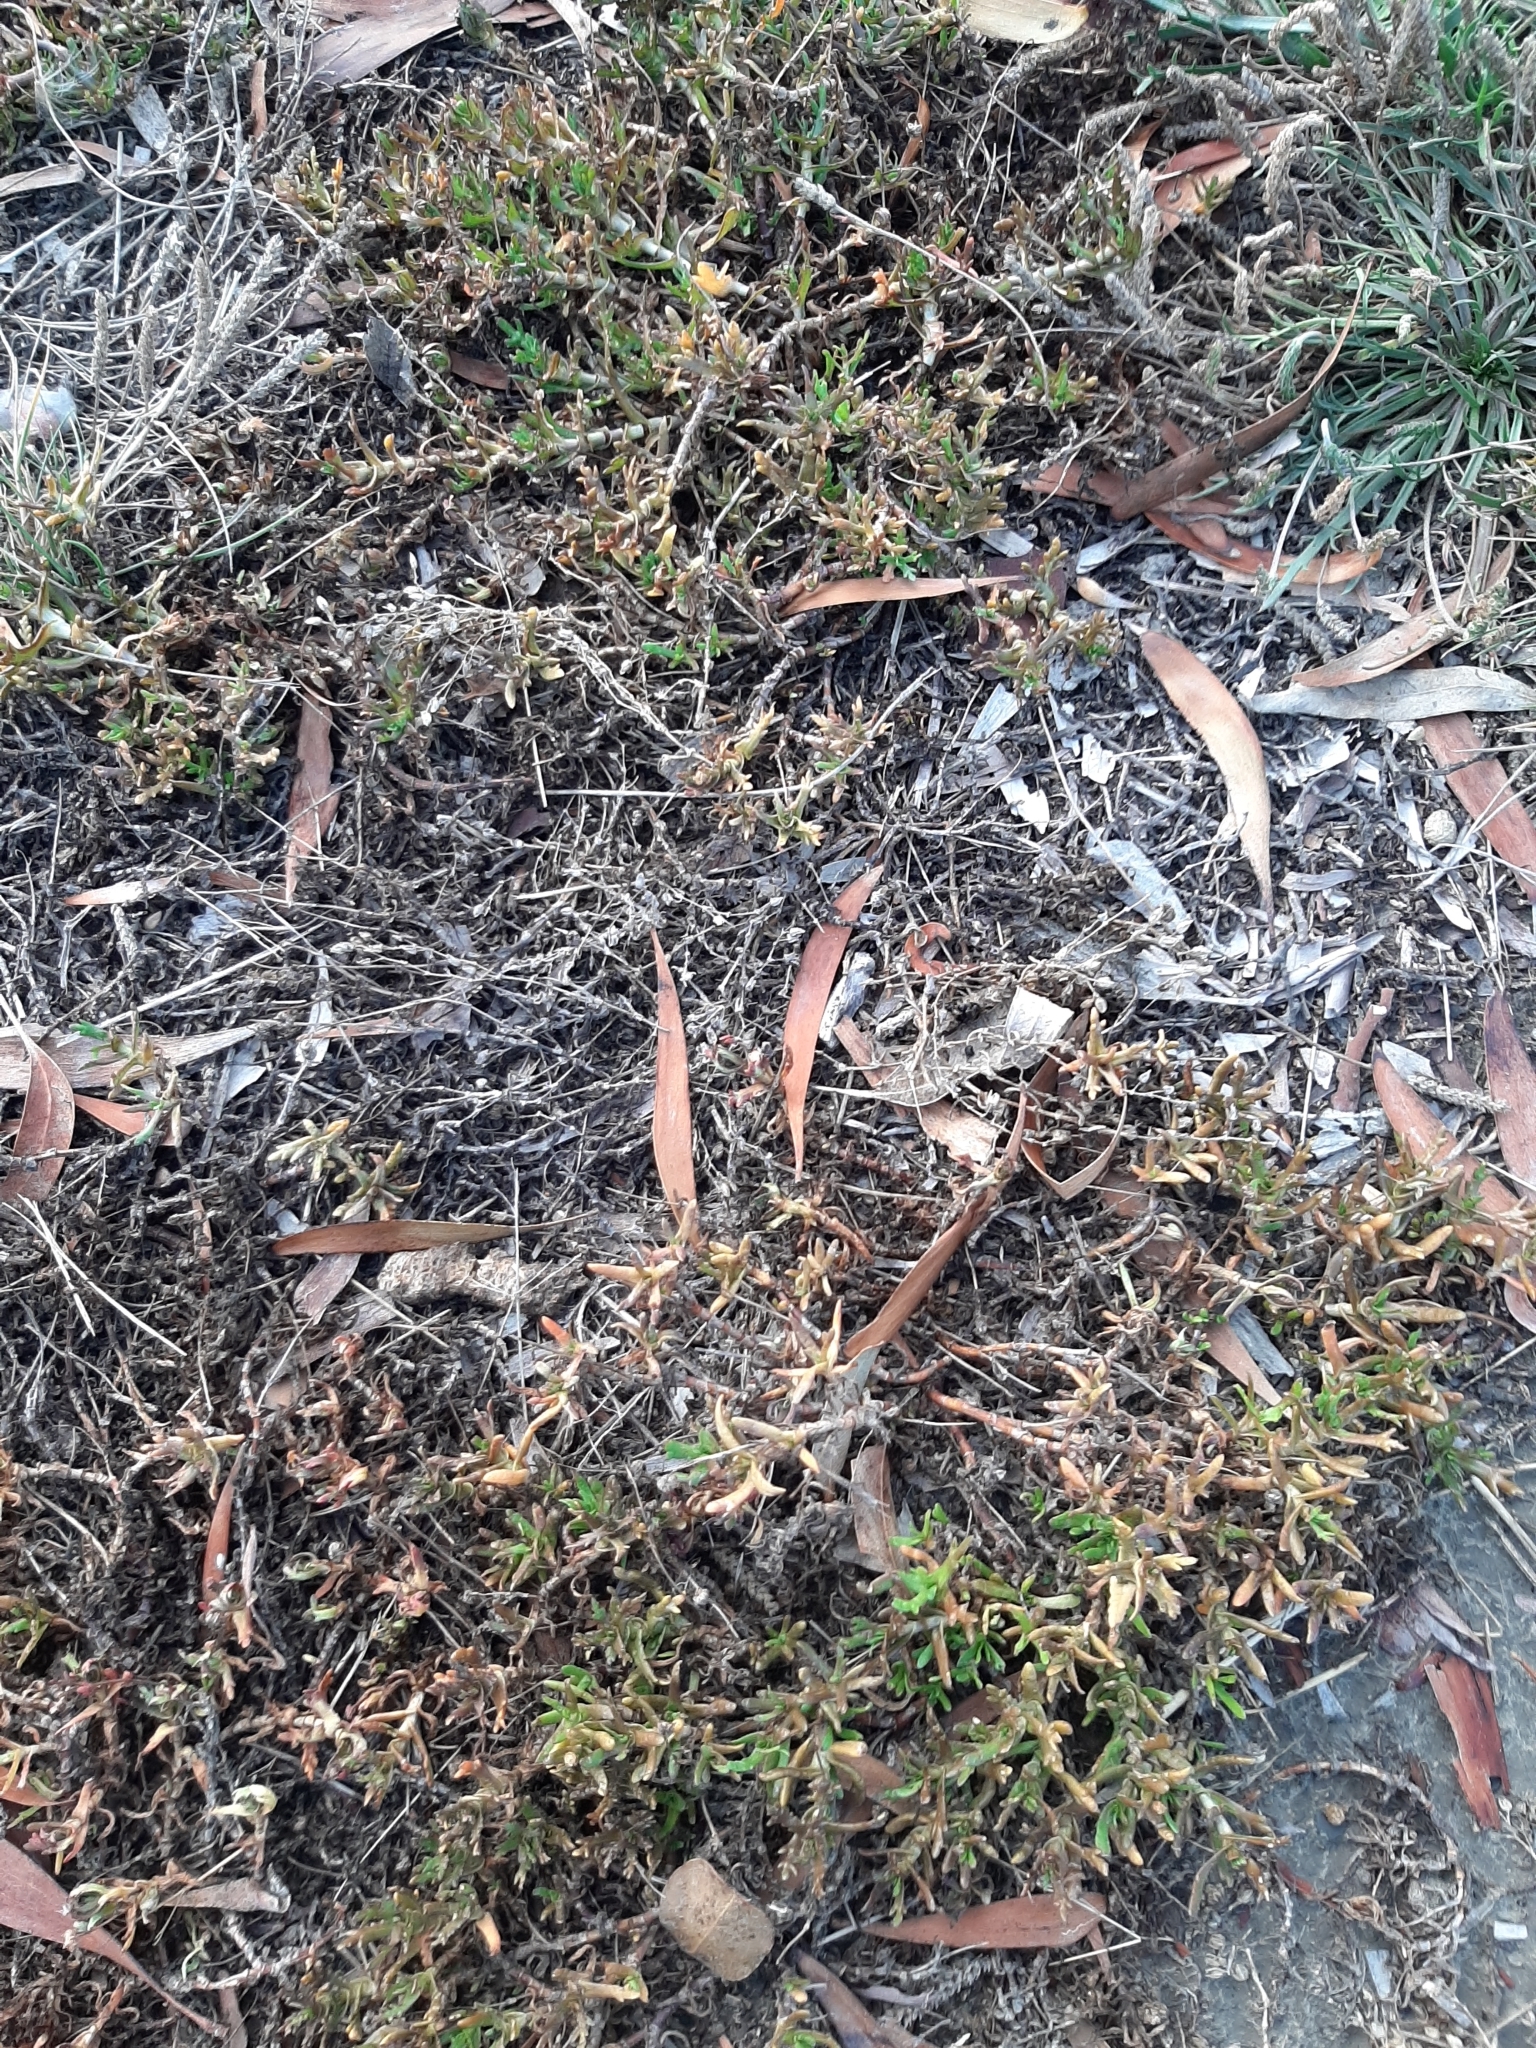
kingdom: Plantae
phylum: Tracheophyta
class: Magnoliopsida
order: Asterales
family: Asteraceae
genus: Cotula
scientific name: Cotula coronopifolia
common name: Buttonweed
